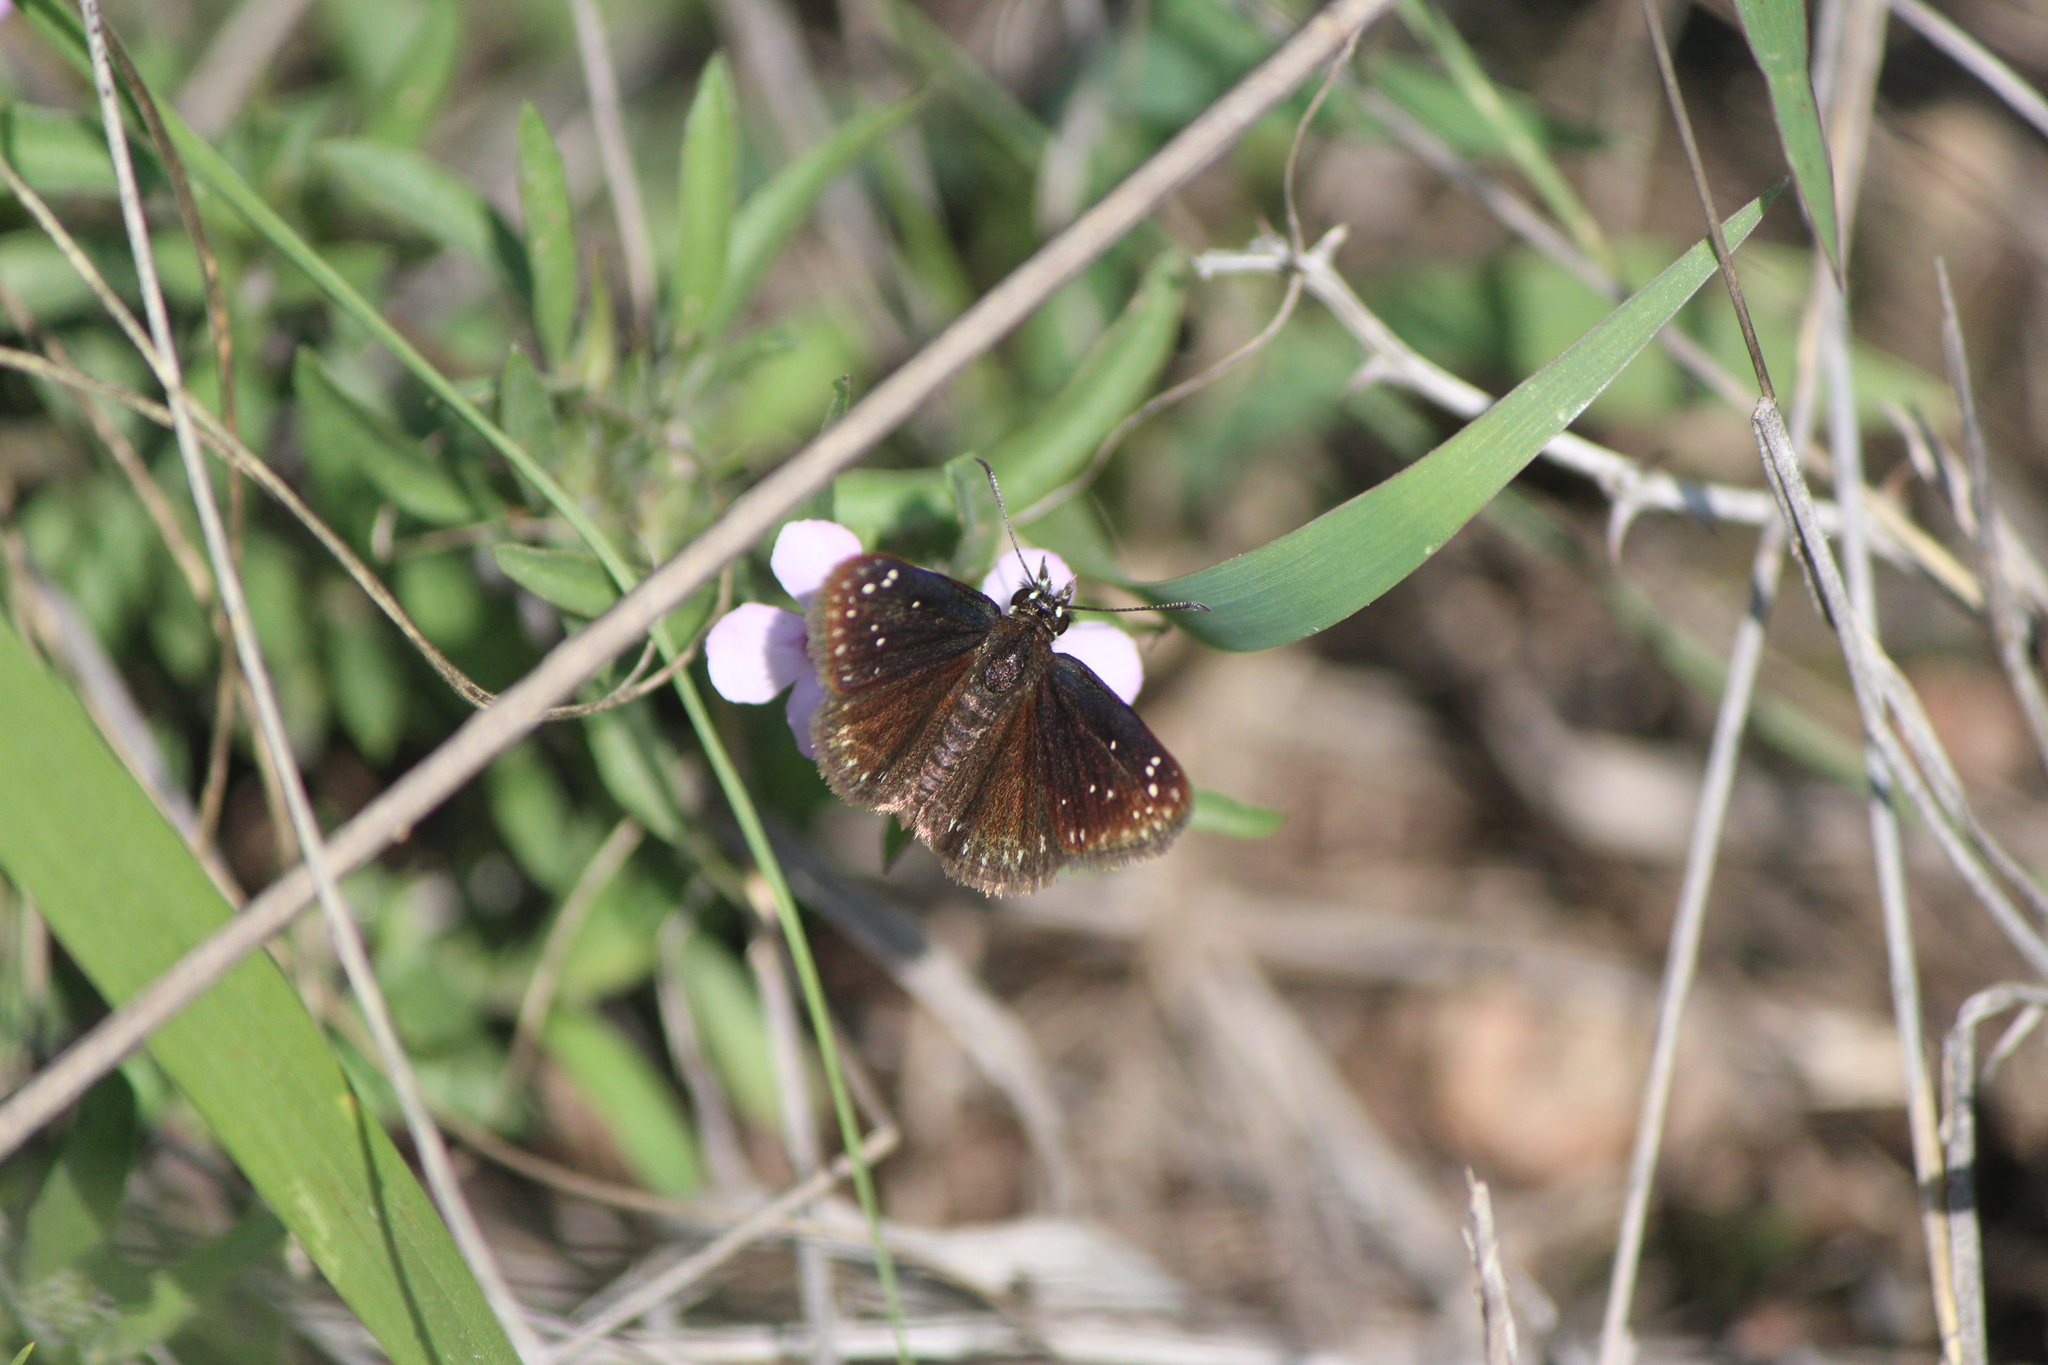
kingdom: Animalia
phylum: Arthropoda
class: Insecta
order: Lepidoptera
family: Hesperiidae
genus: Pholisora
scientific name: Pholisora mejicanus
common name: Mexican sootywing
